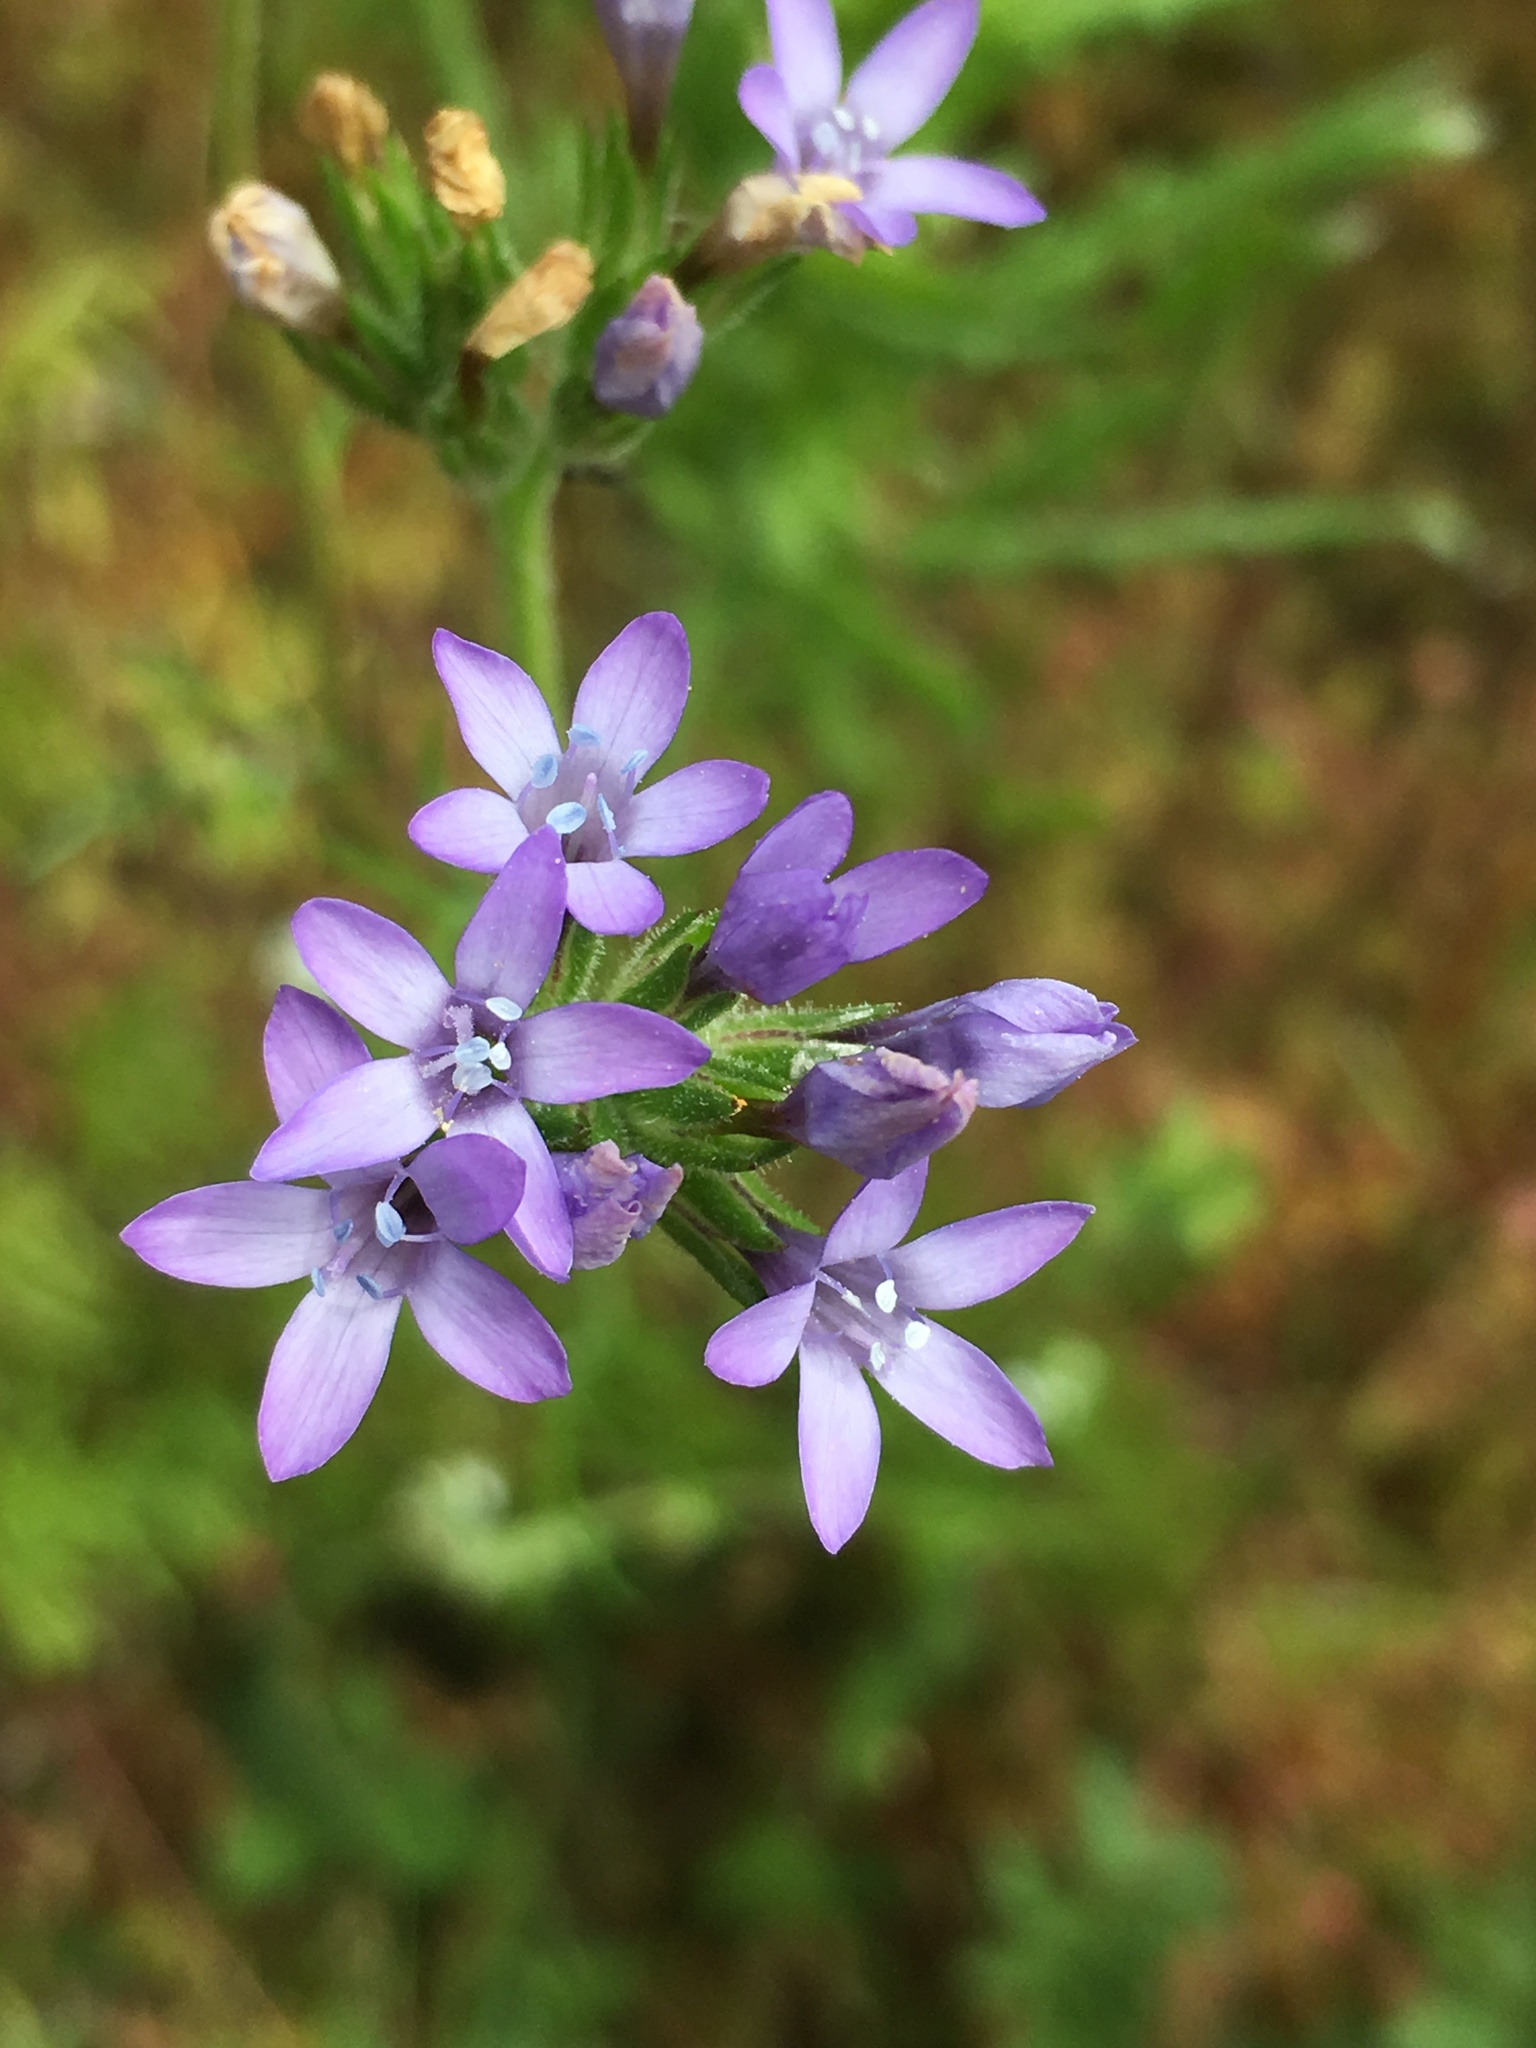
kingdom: Plantae
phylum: Tracheophyta
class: Magnoliopsida
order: Ericales
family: Polemoniaceae
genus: Gilia
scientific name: Gilia nevinii
